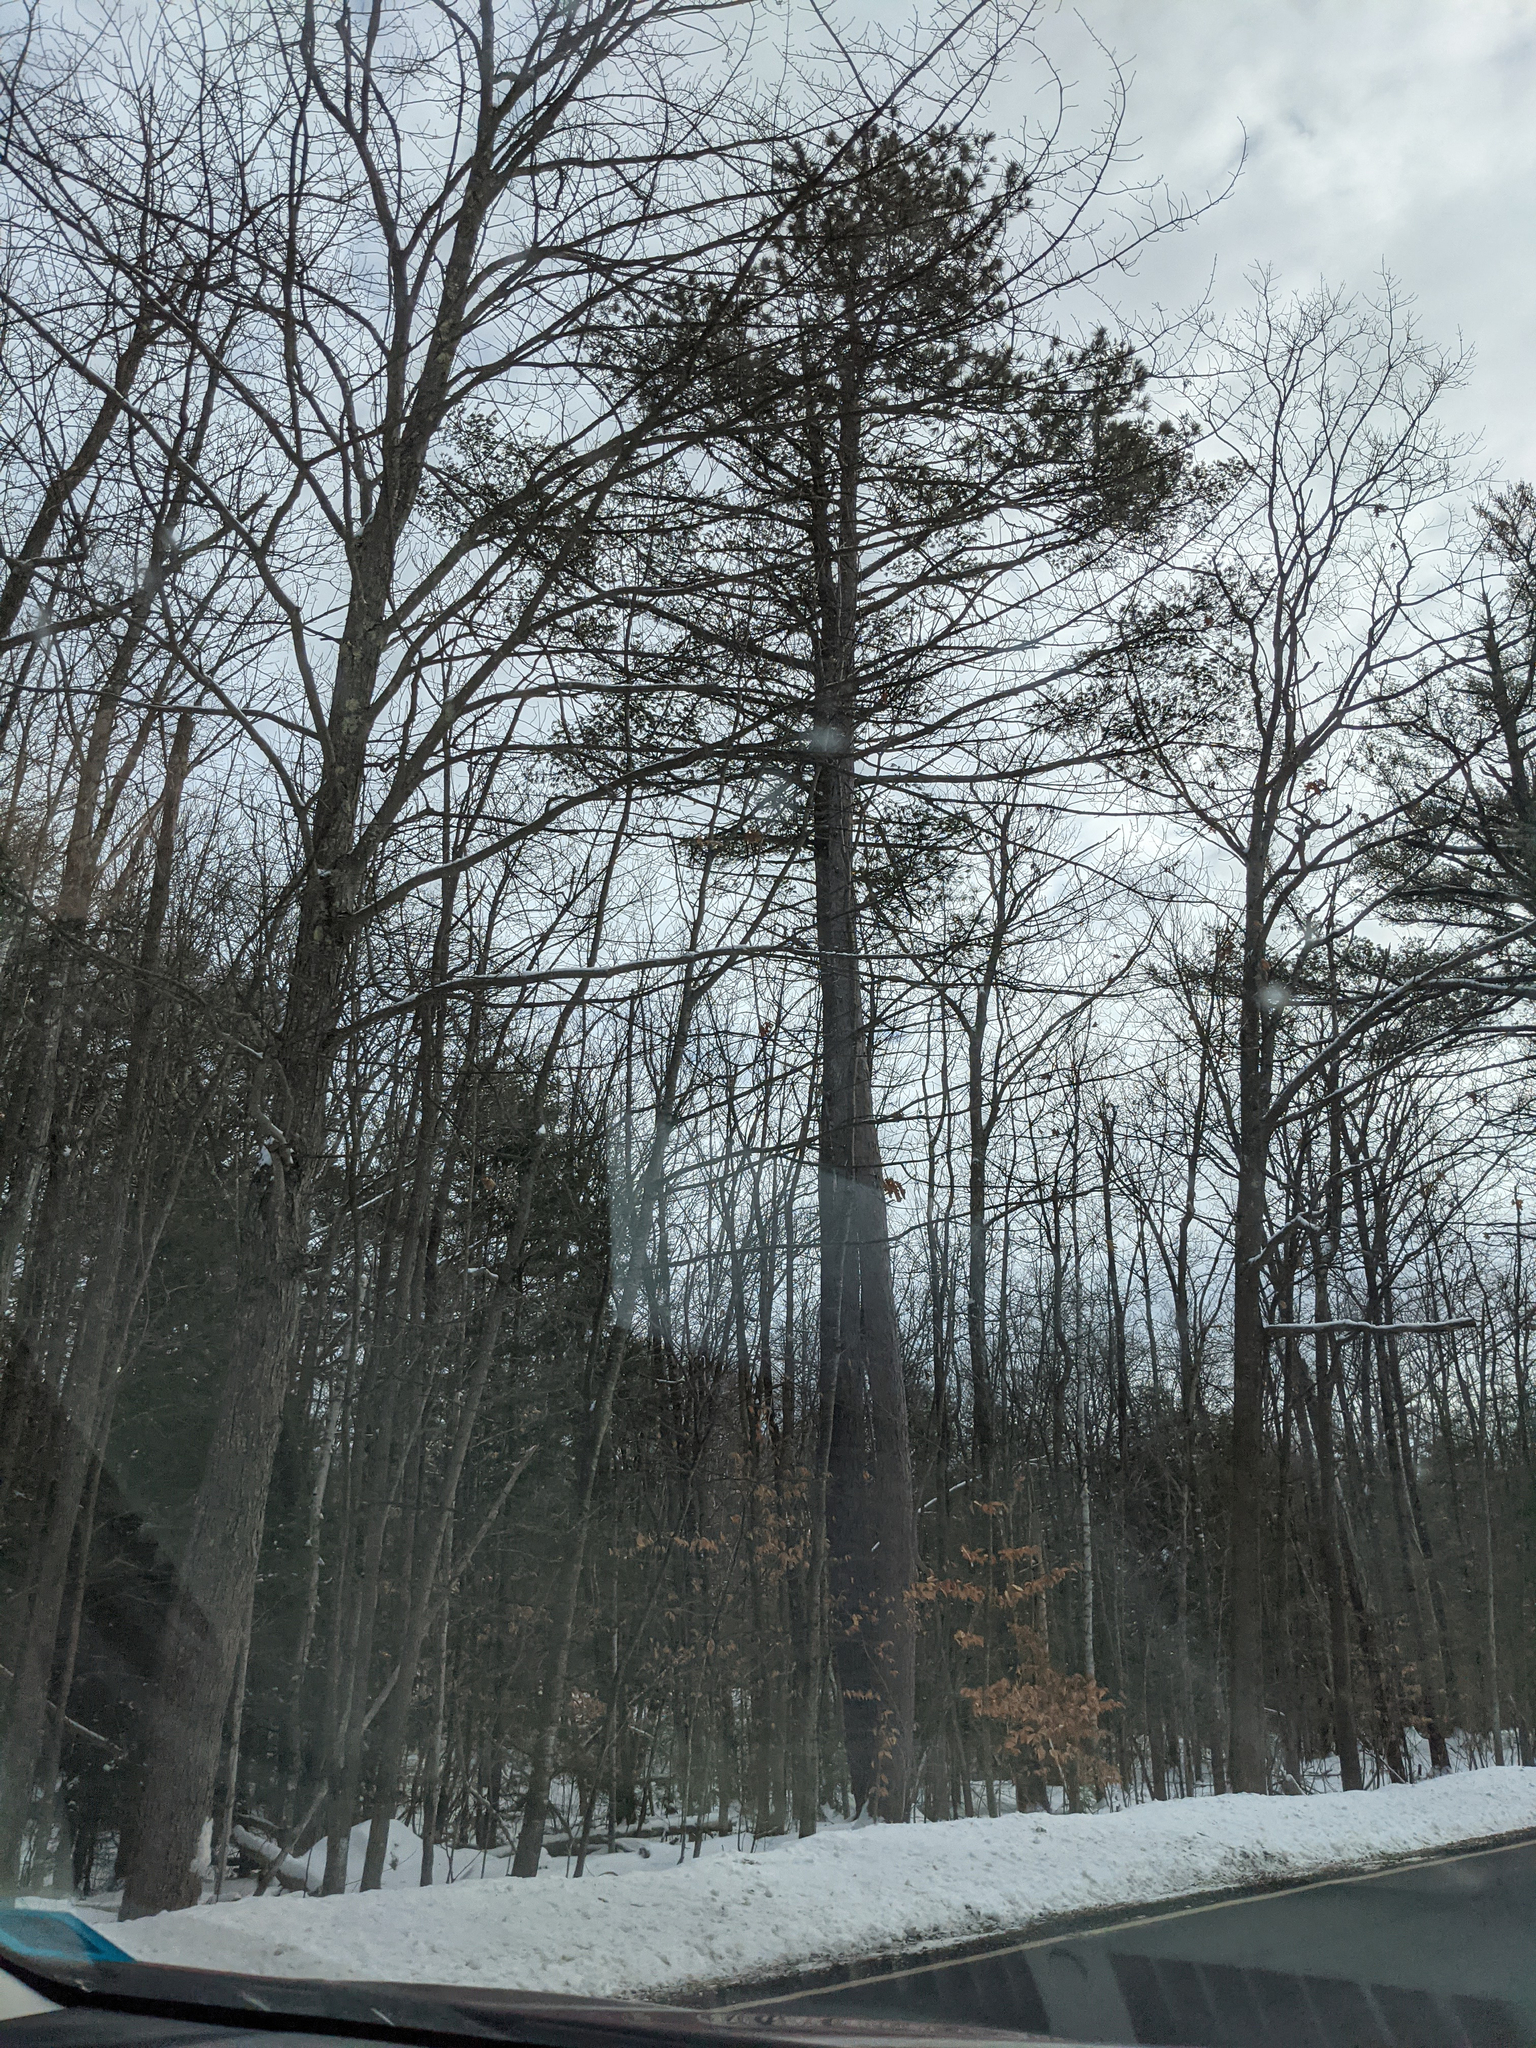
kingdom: Plantae
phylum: Tracheophyta
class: Pinopsida
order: Pinales
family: Pinaceae
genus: Pinus
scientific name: Pinus strobus
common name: Weymouth pine
